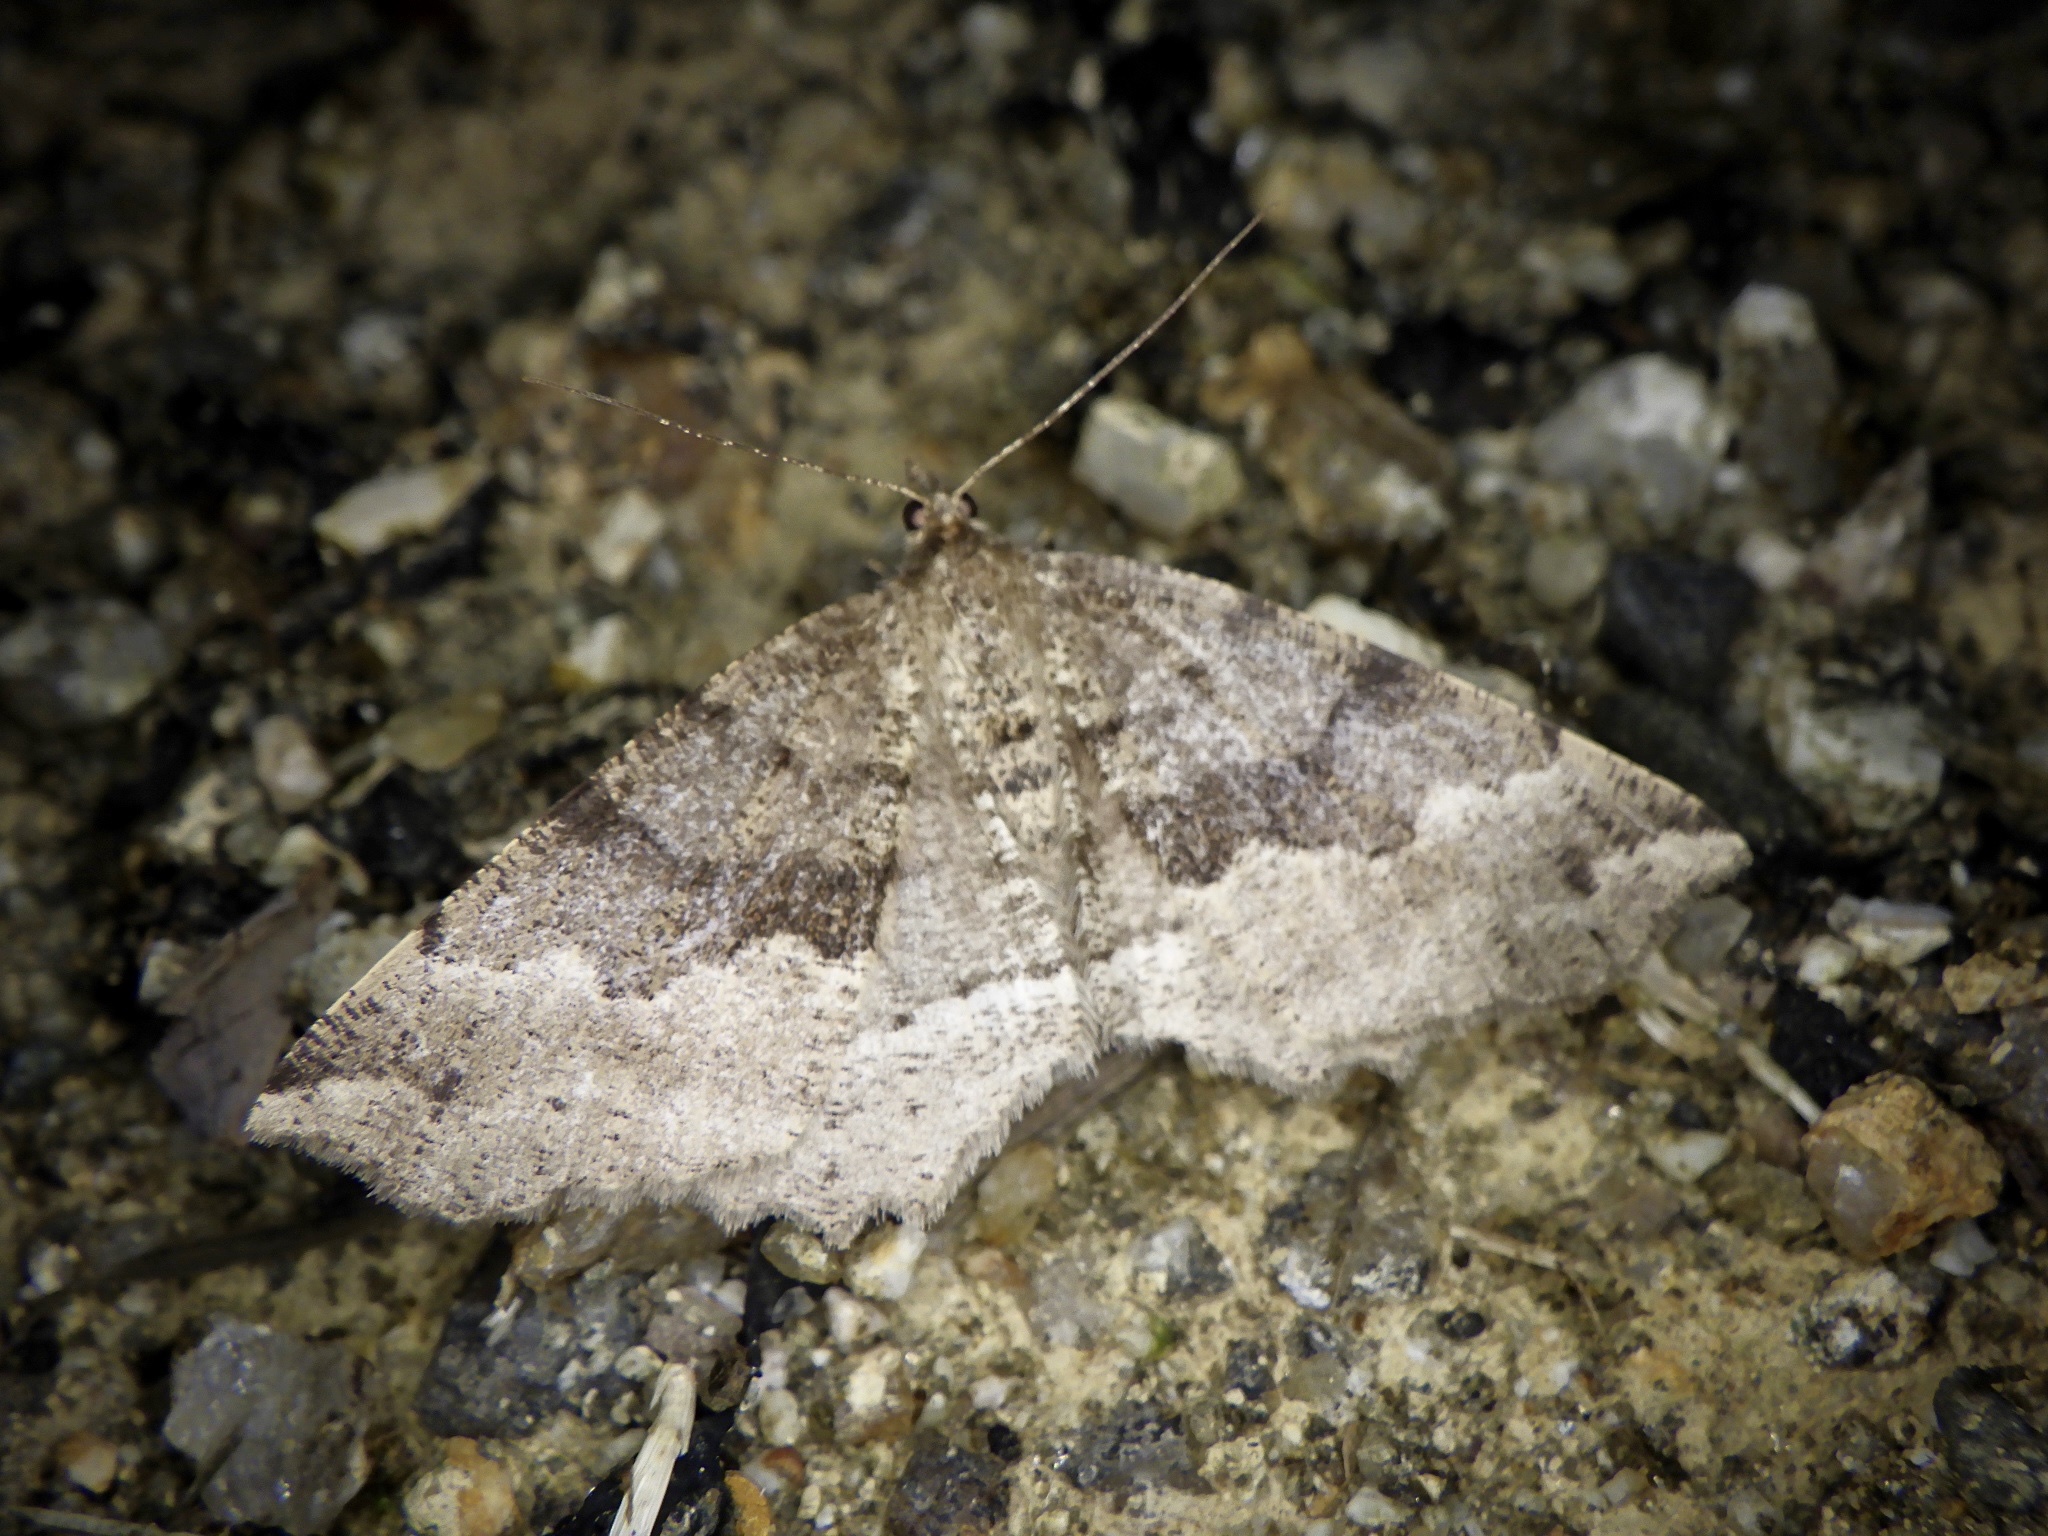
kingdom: Animalia
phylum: Arthropoda
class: Insecta
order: Lepidoptera
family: Geometridae
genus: Xerodes
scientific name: Xerodes rufescentaria
